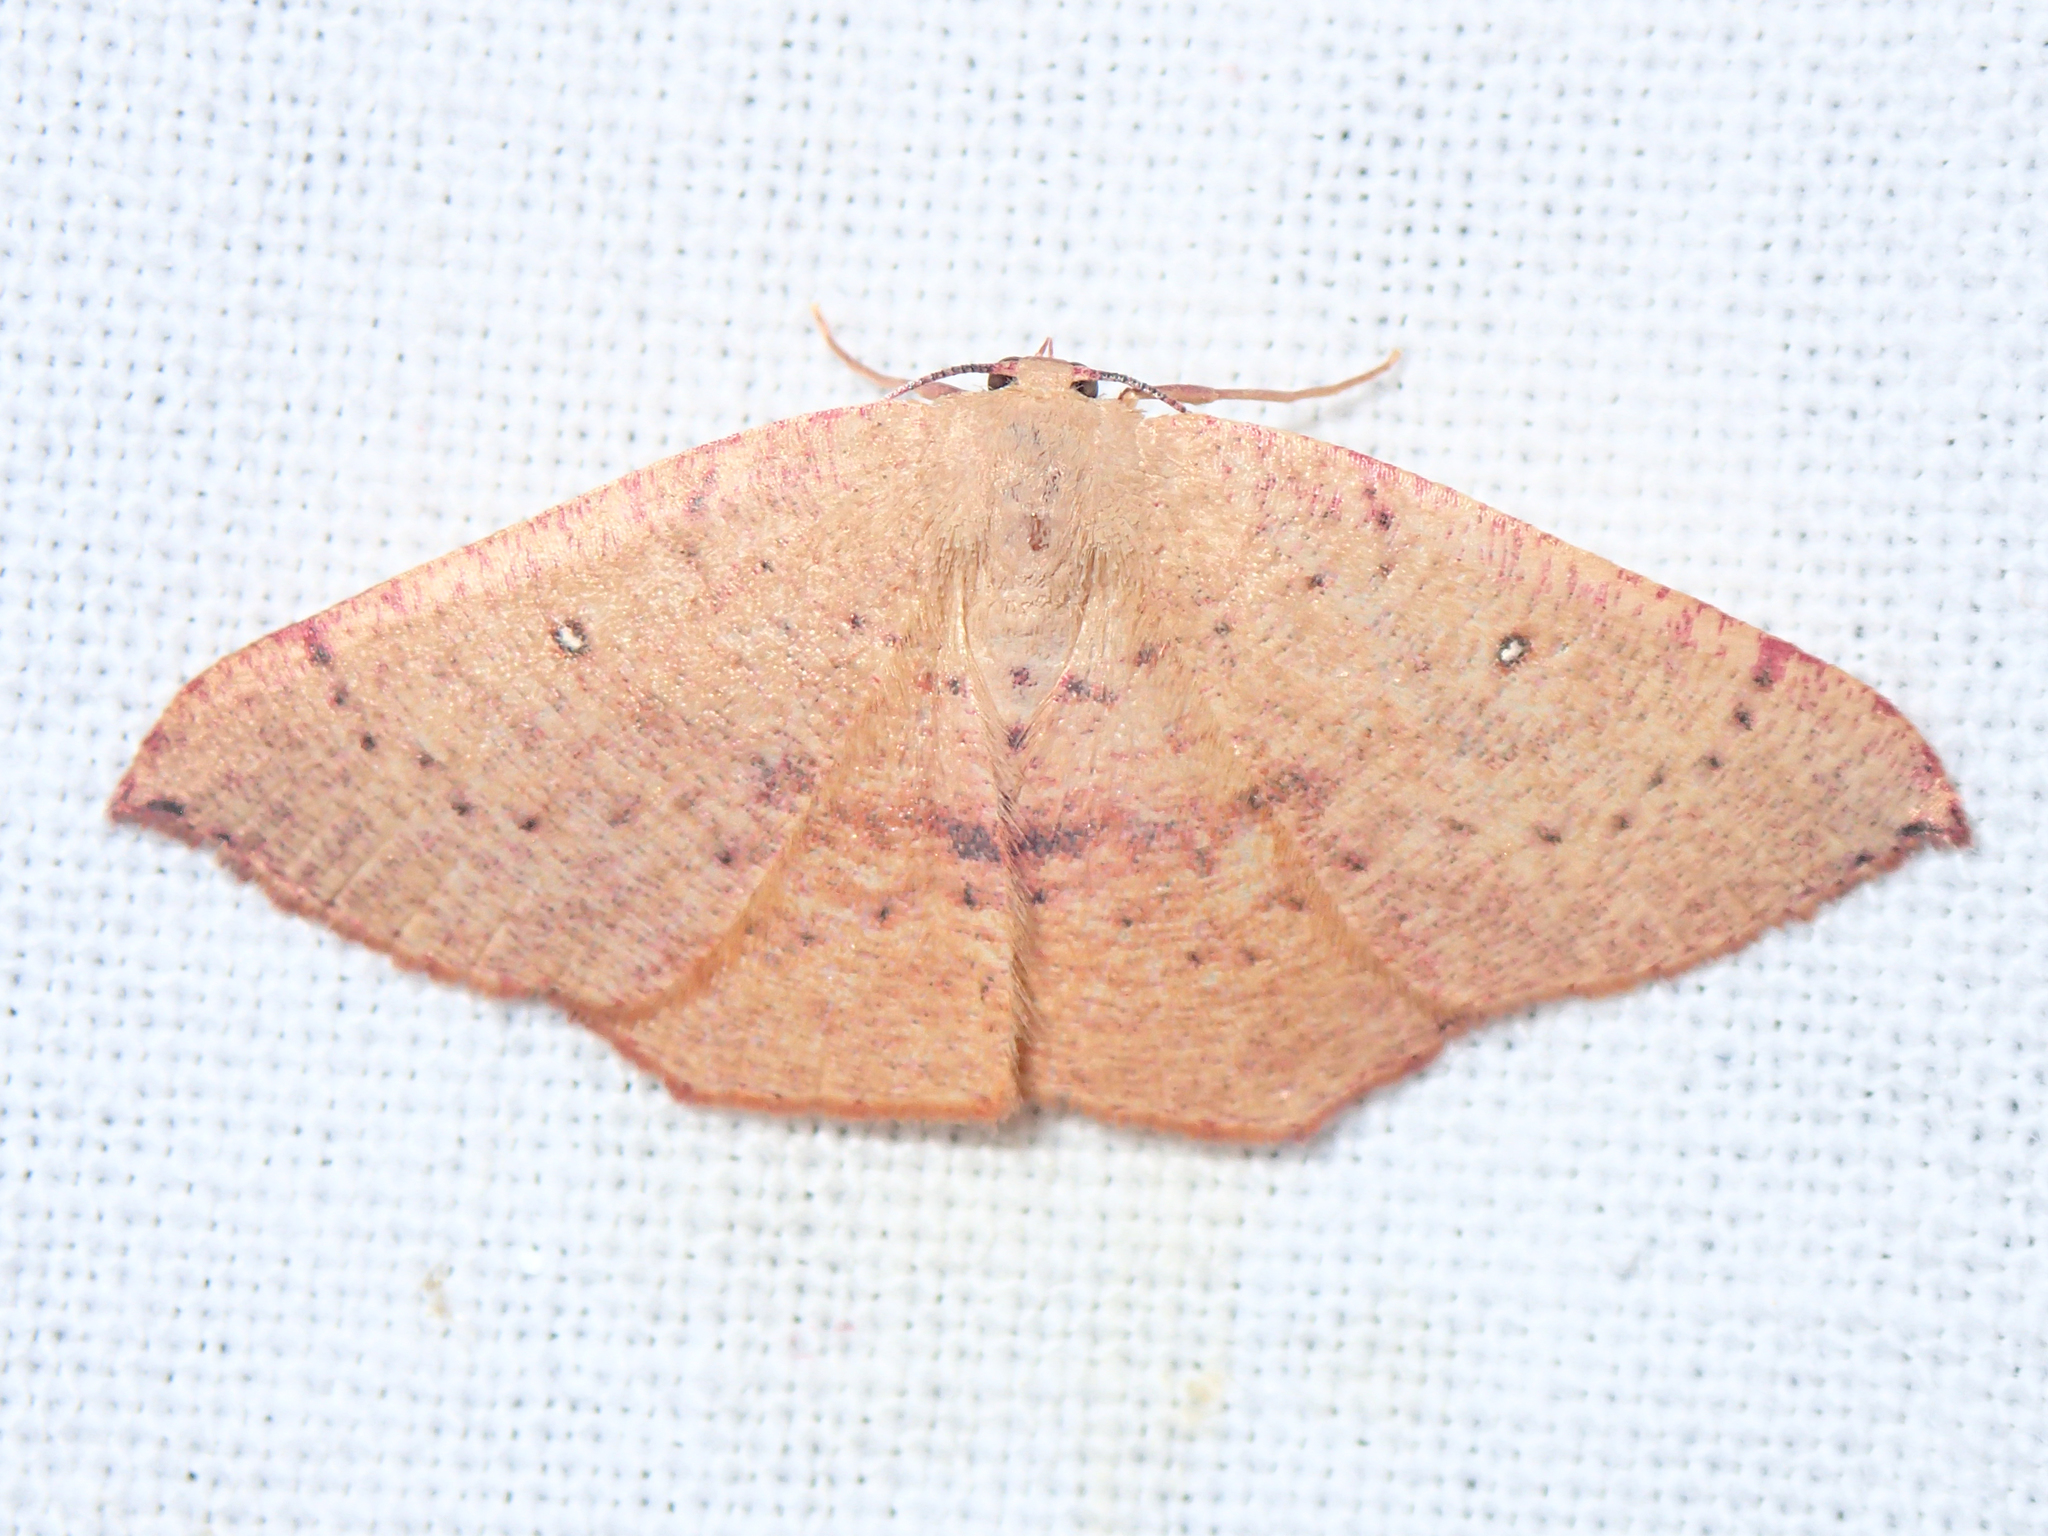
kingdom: Animalia
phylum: Arthropoda
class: Insecta
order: Lepidoptera
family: Geometridae
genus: Cyclophora
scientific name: Cyclophora puppillaria
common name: Blair's mocha
